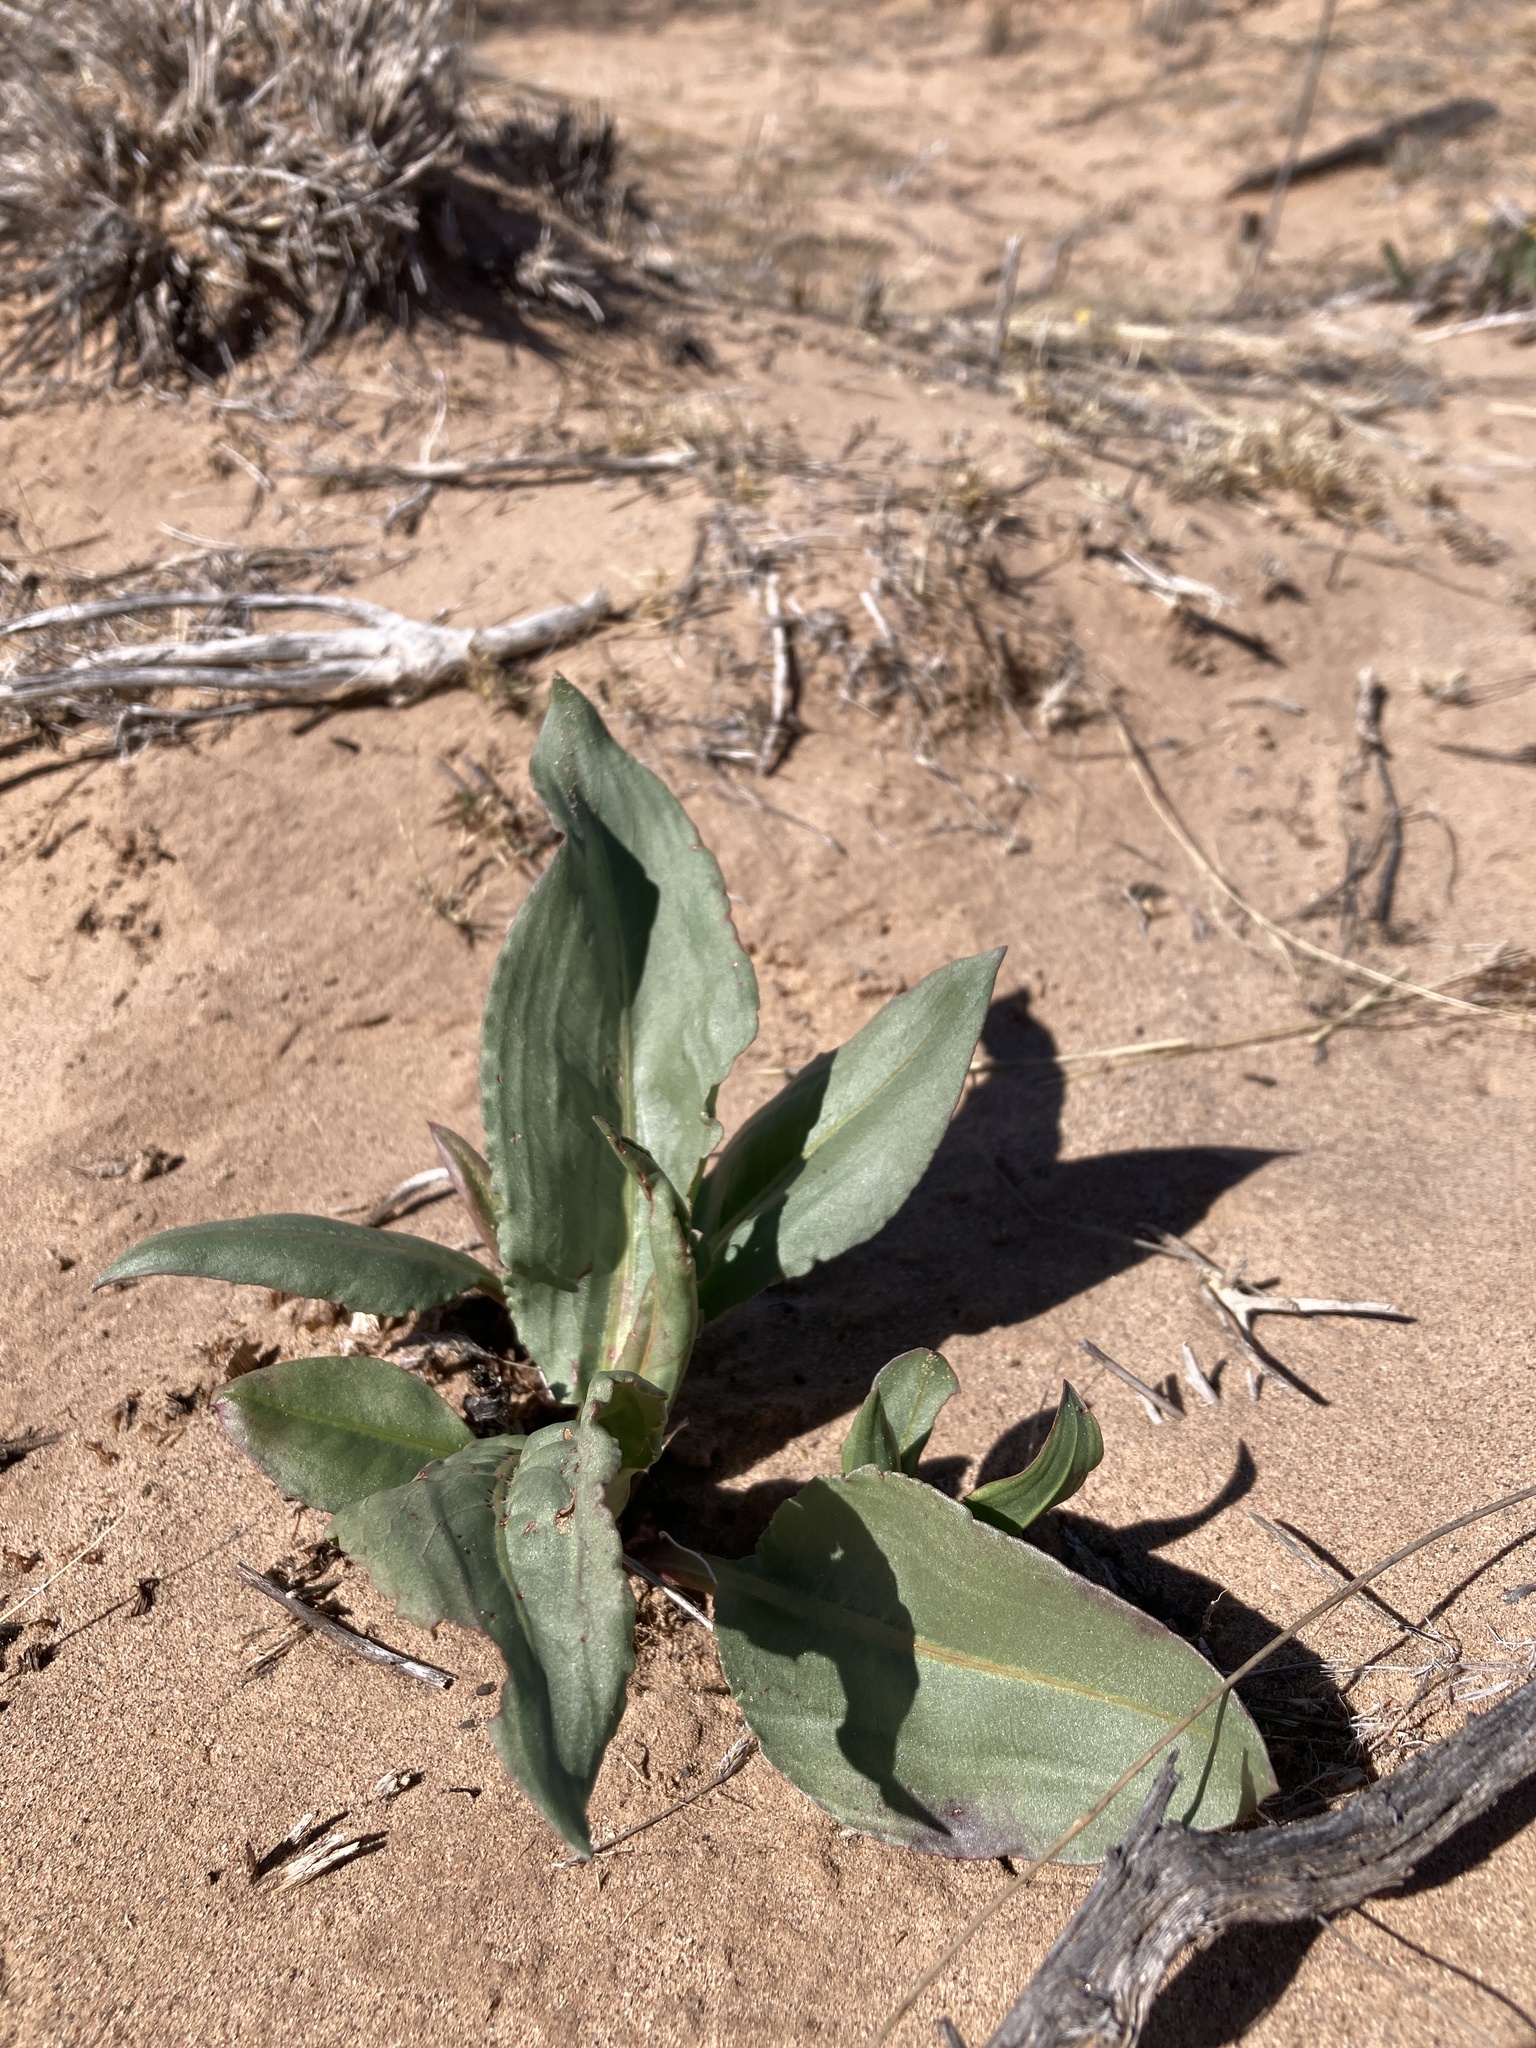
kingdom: Plantae
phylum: Tracheophyta
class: Magnoliopsida
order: Caryophyllales
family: Polygonaceae
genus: Rumex
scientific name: Rumex hymenosepalus
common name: Ganagra
